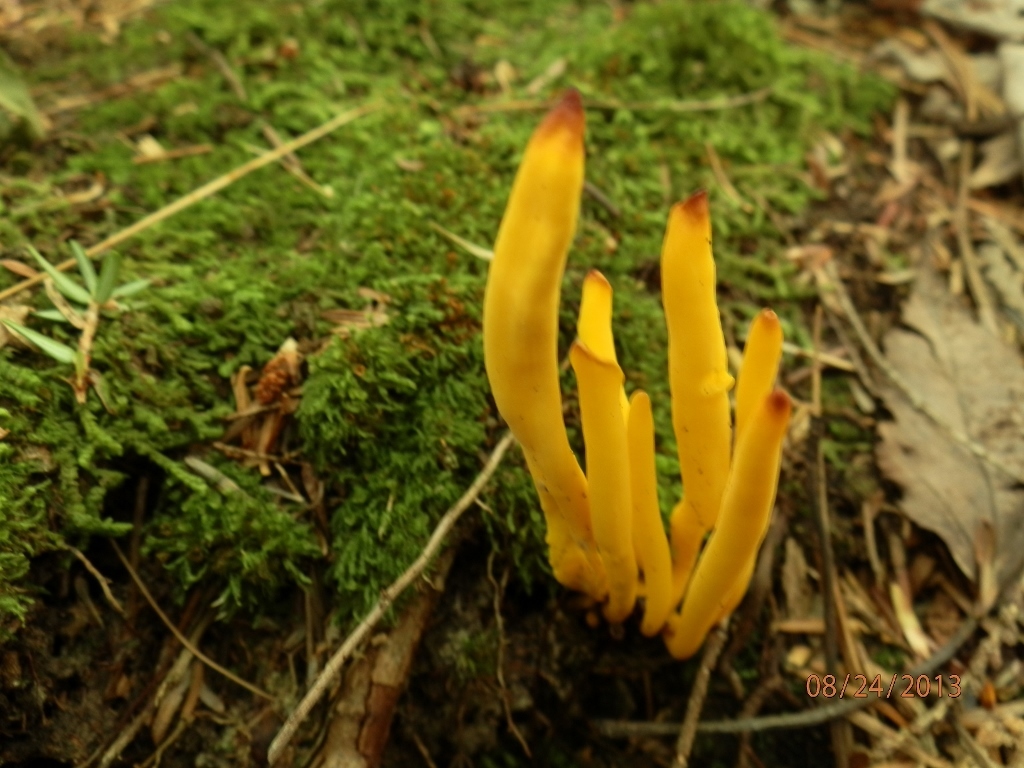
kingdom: Fungi
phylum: Basidiomycota
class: Agaricomycetes
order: Agaricales
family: Clavariaceae
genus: Clavulinopsis
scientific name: Clavulinopsis fusiformis
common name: Golden spindles
